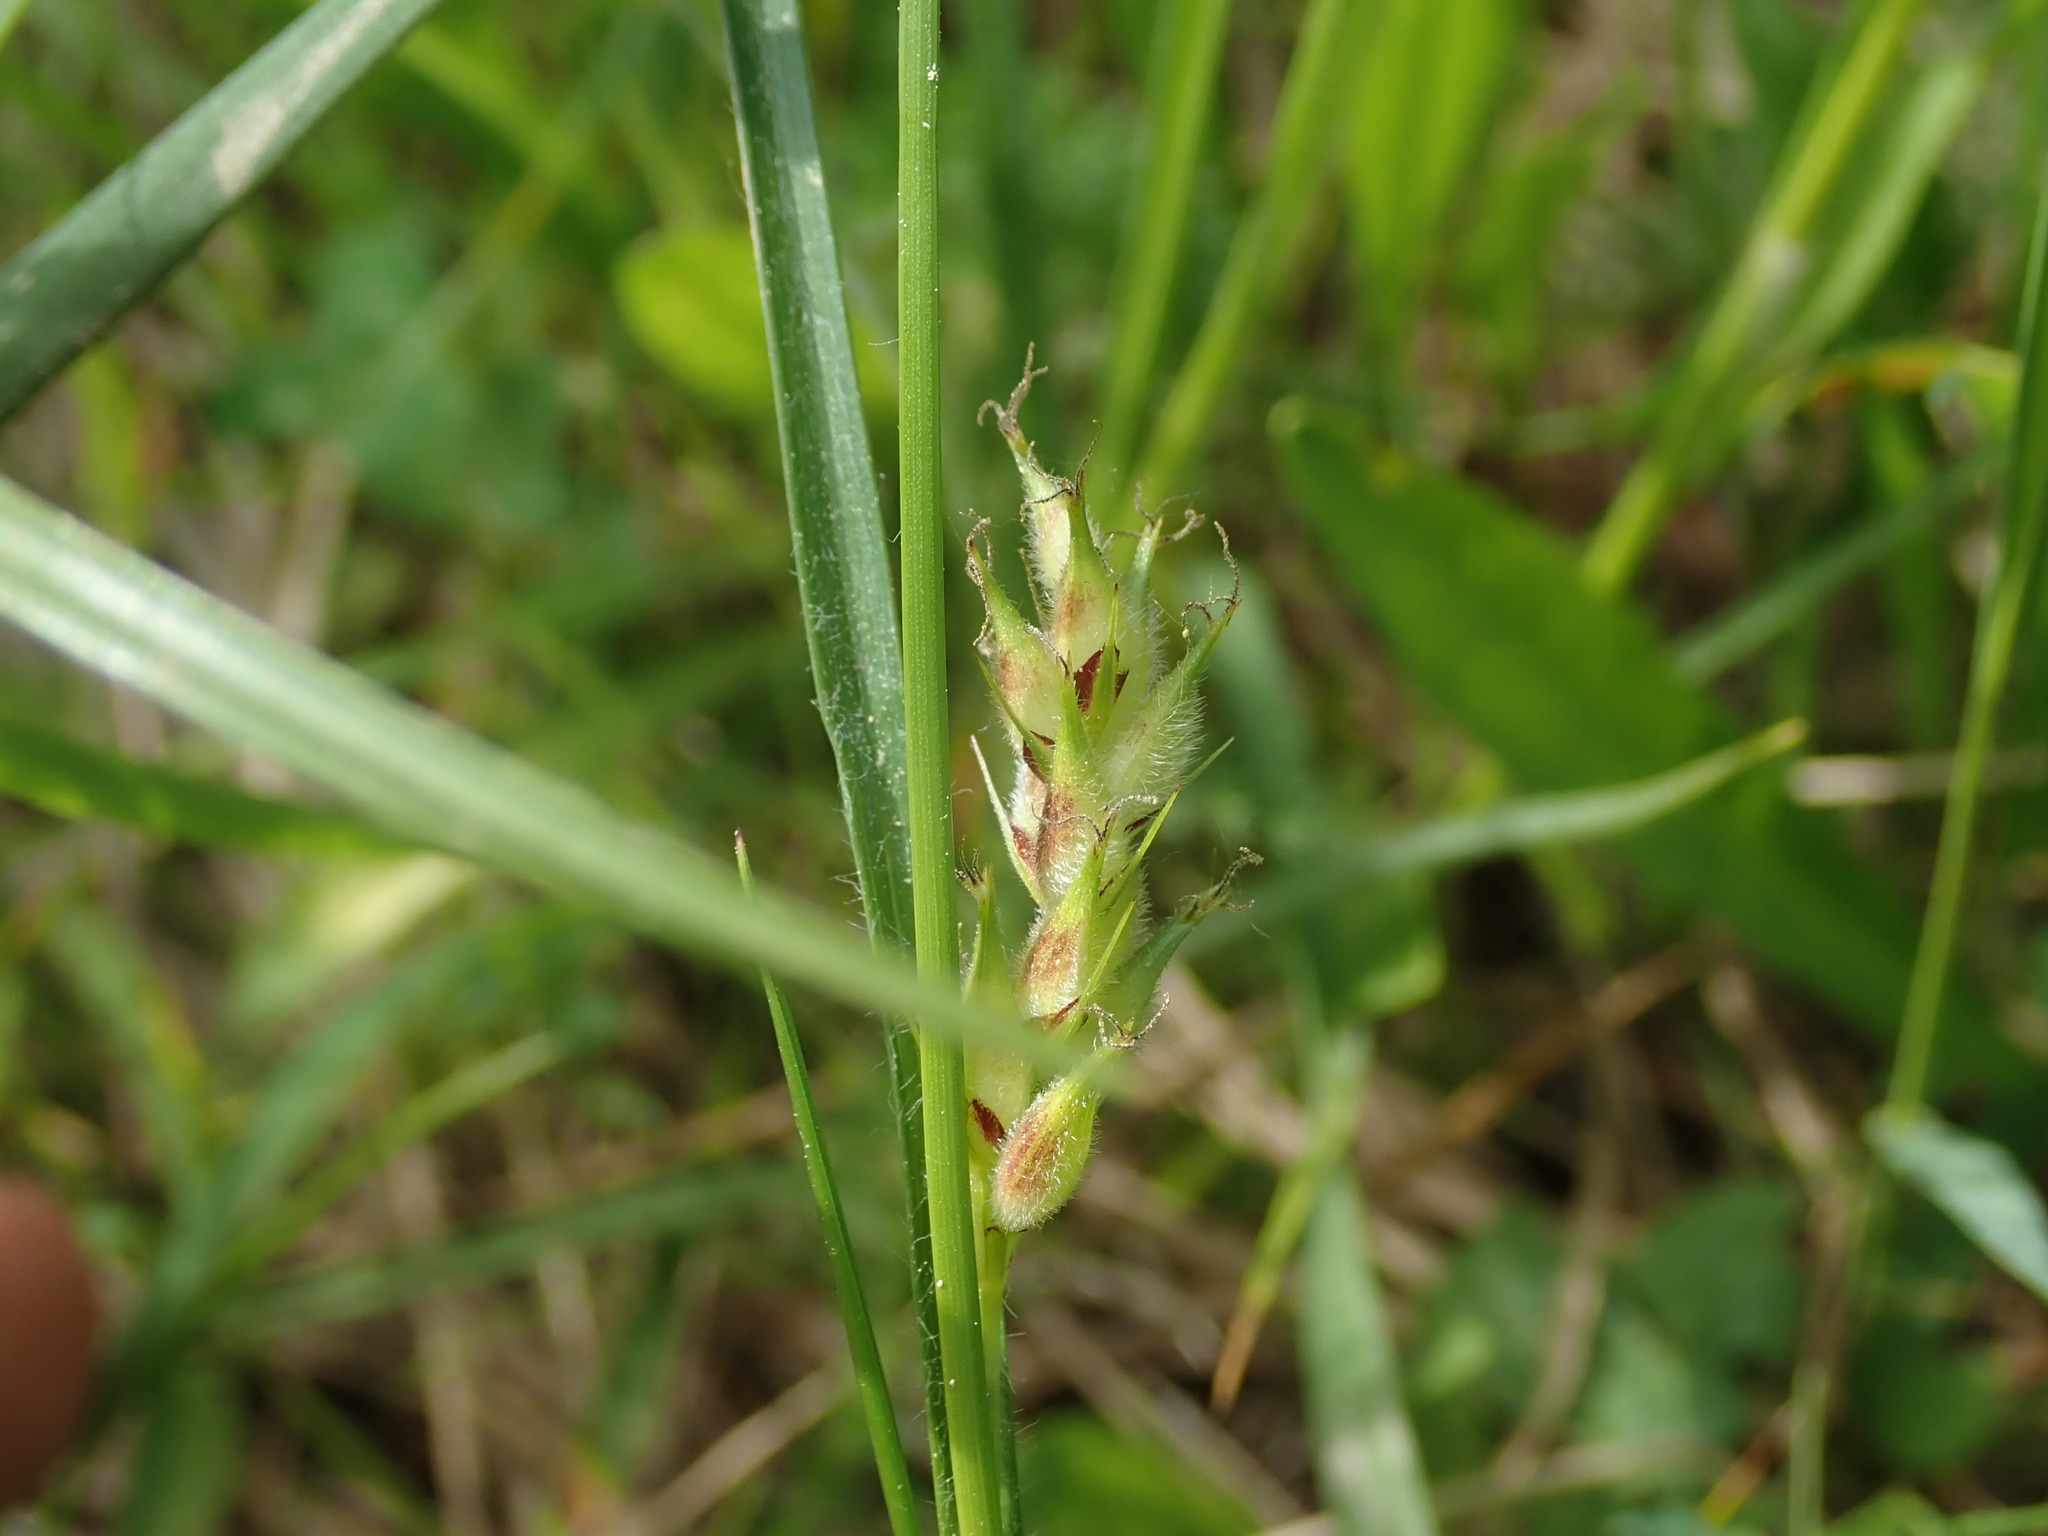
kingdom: Plantae
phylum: Tracheophyta
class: Liliopsida
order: Poales
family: Cyperaceae
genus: Carex
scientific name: Carex hirta
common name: Hairy sedge
